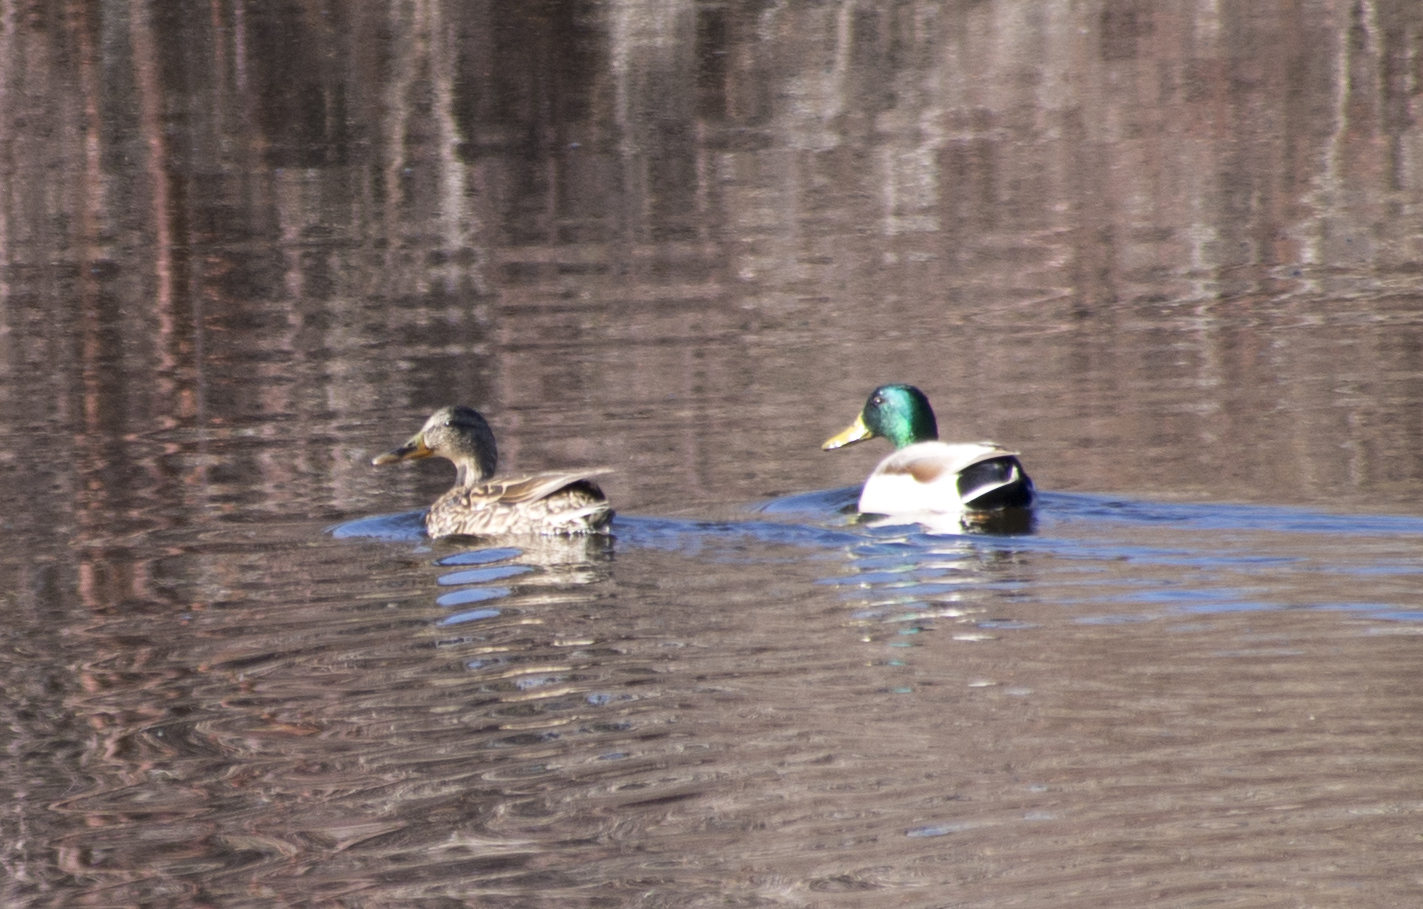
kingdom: Animalia
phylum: Chordata
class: Aves
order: Anseriformes
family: Anatidae
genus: Anas
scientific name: Anas platyrhynchos
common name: Mallard
